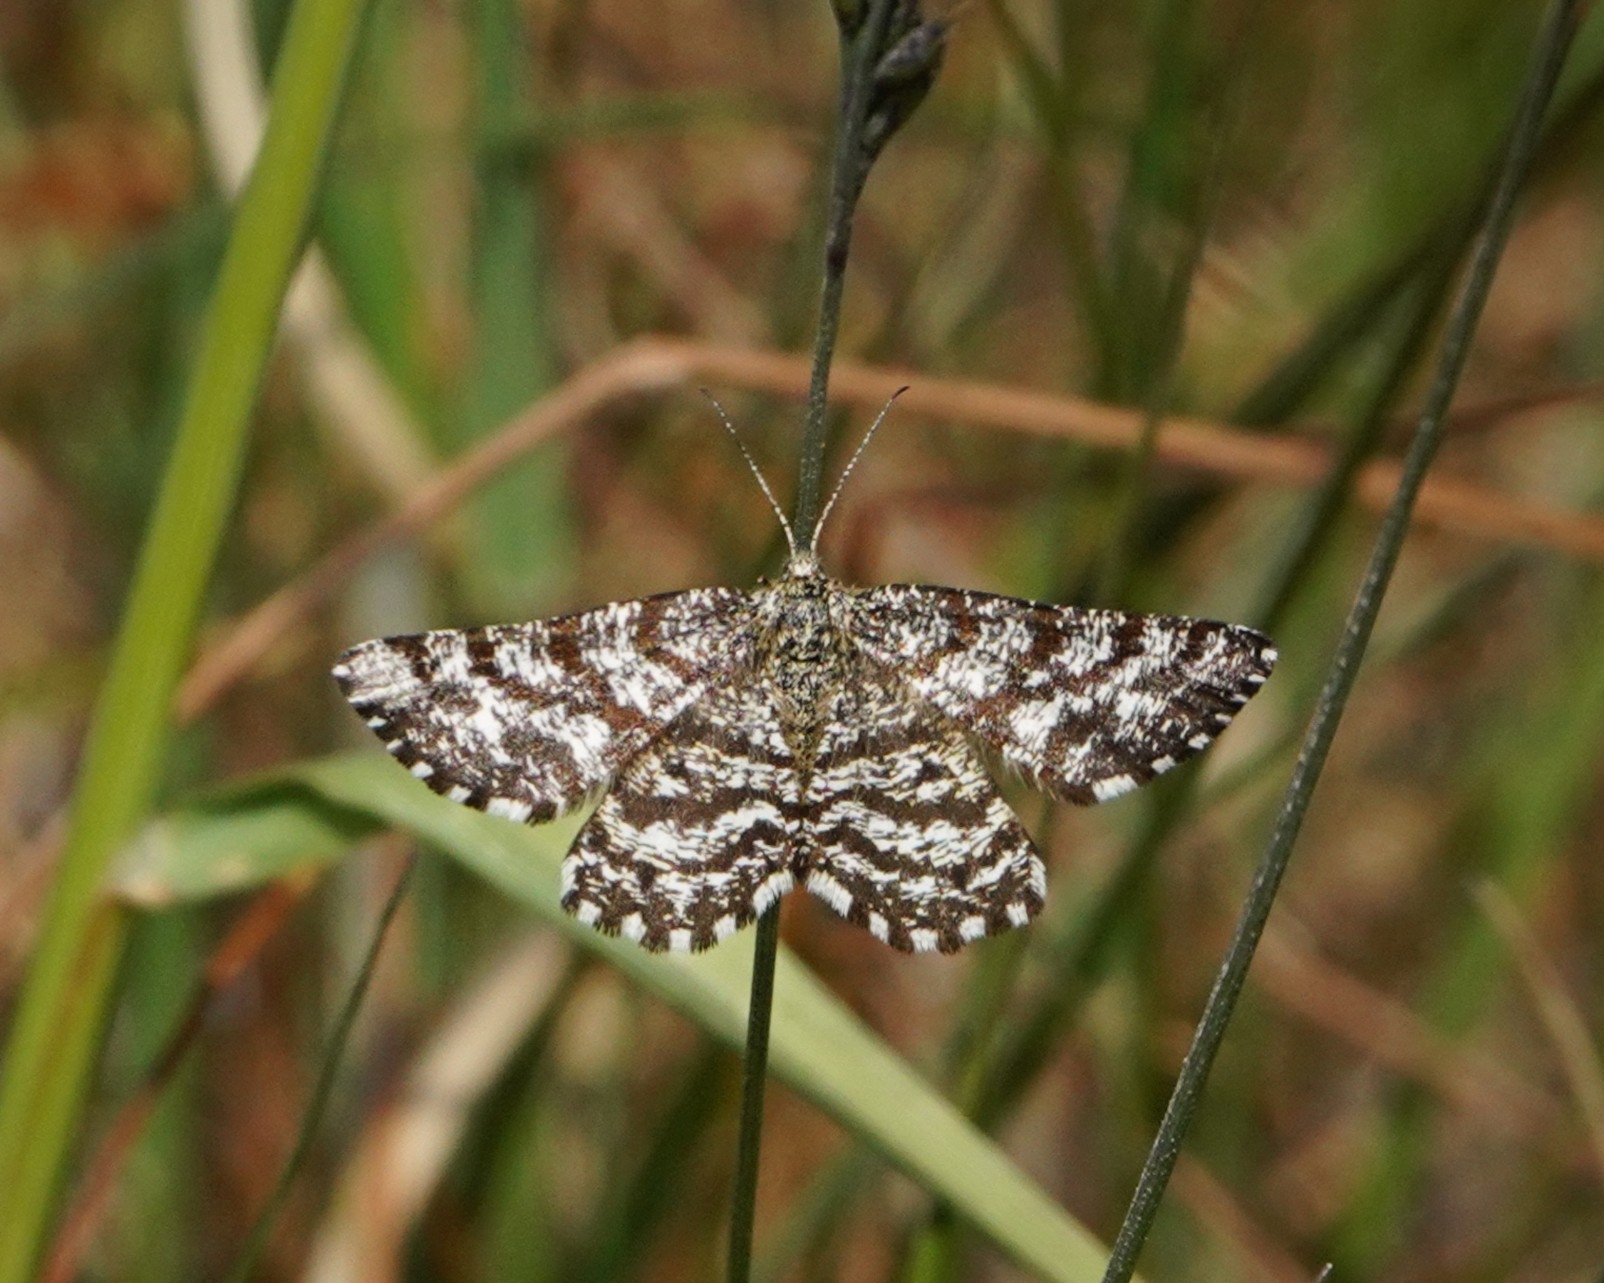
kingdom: Animalia
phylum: Arthropoda
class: Insecta
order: Lepidoptera
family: Geometridae
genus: Ematurga
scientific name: Ematurga atomaria
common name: Common heath
